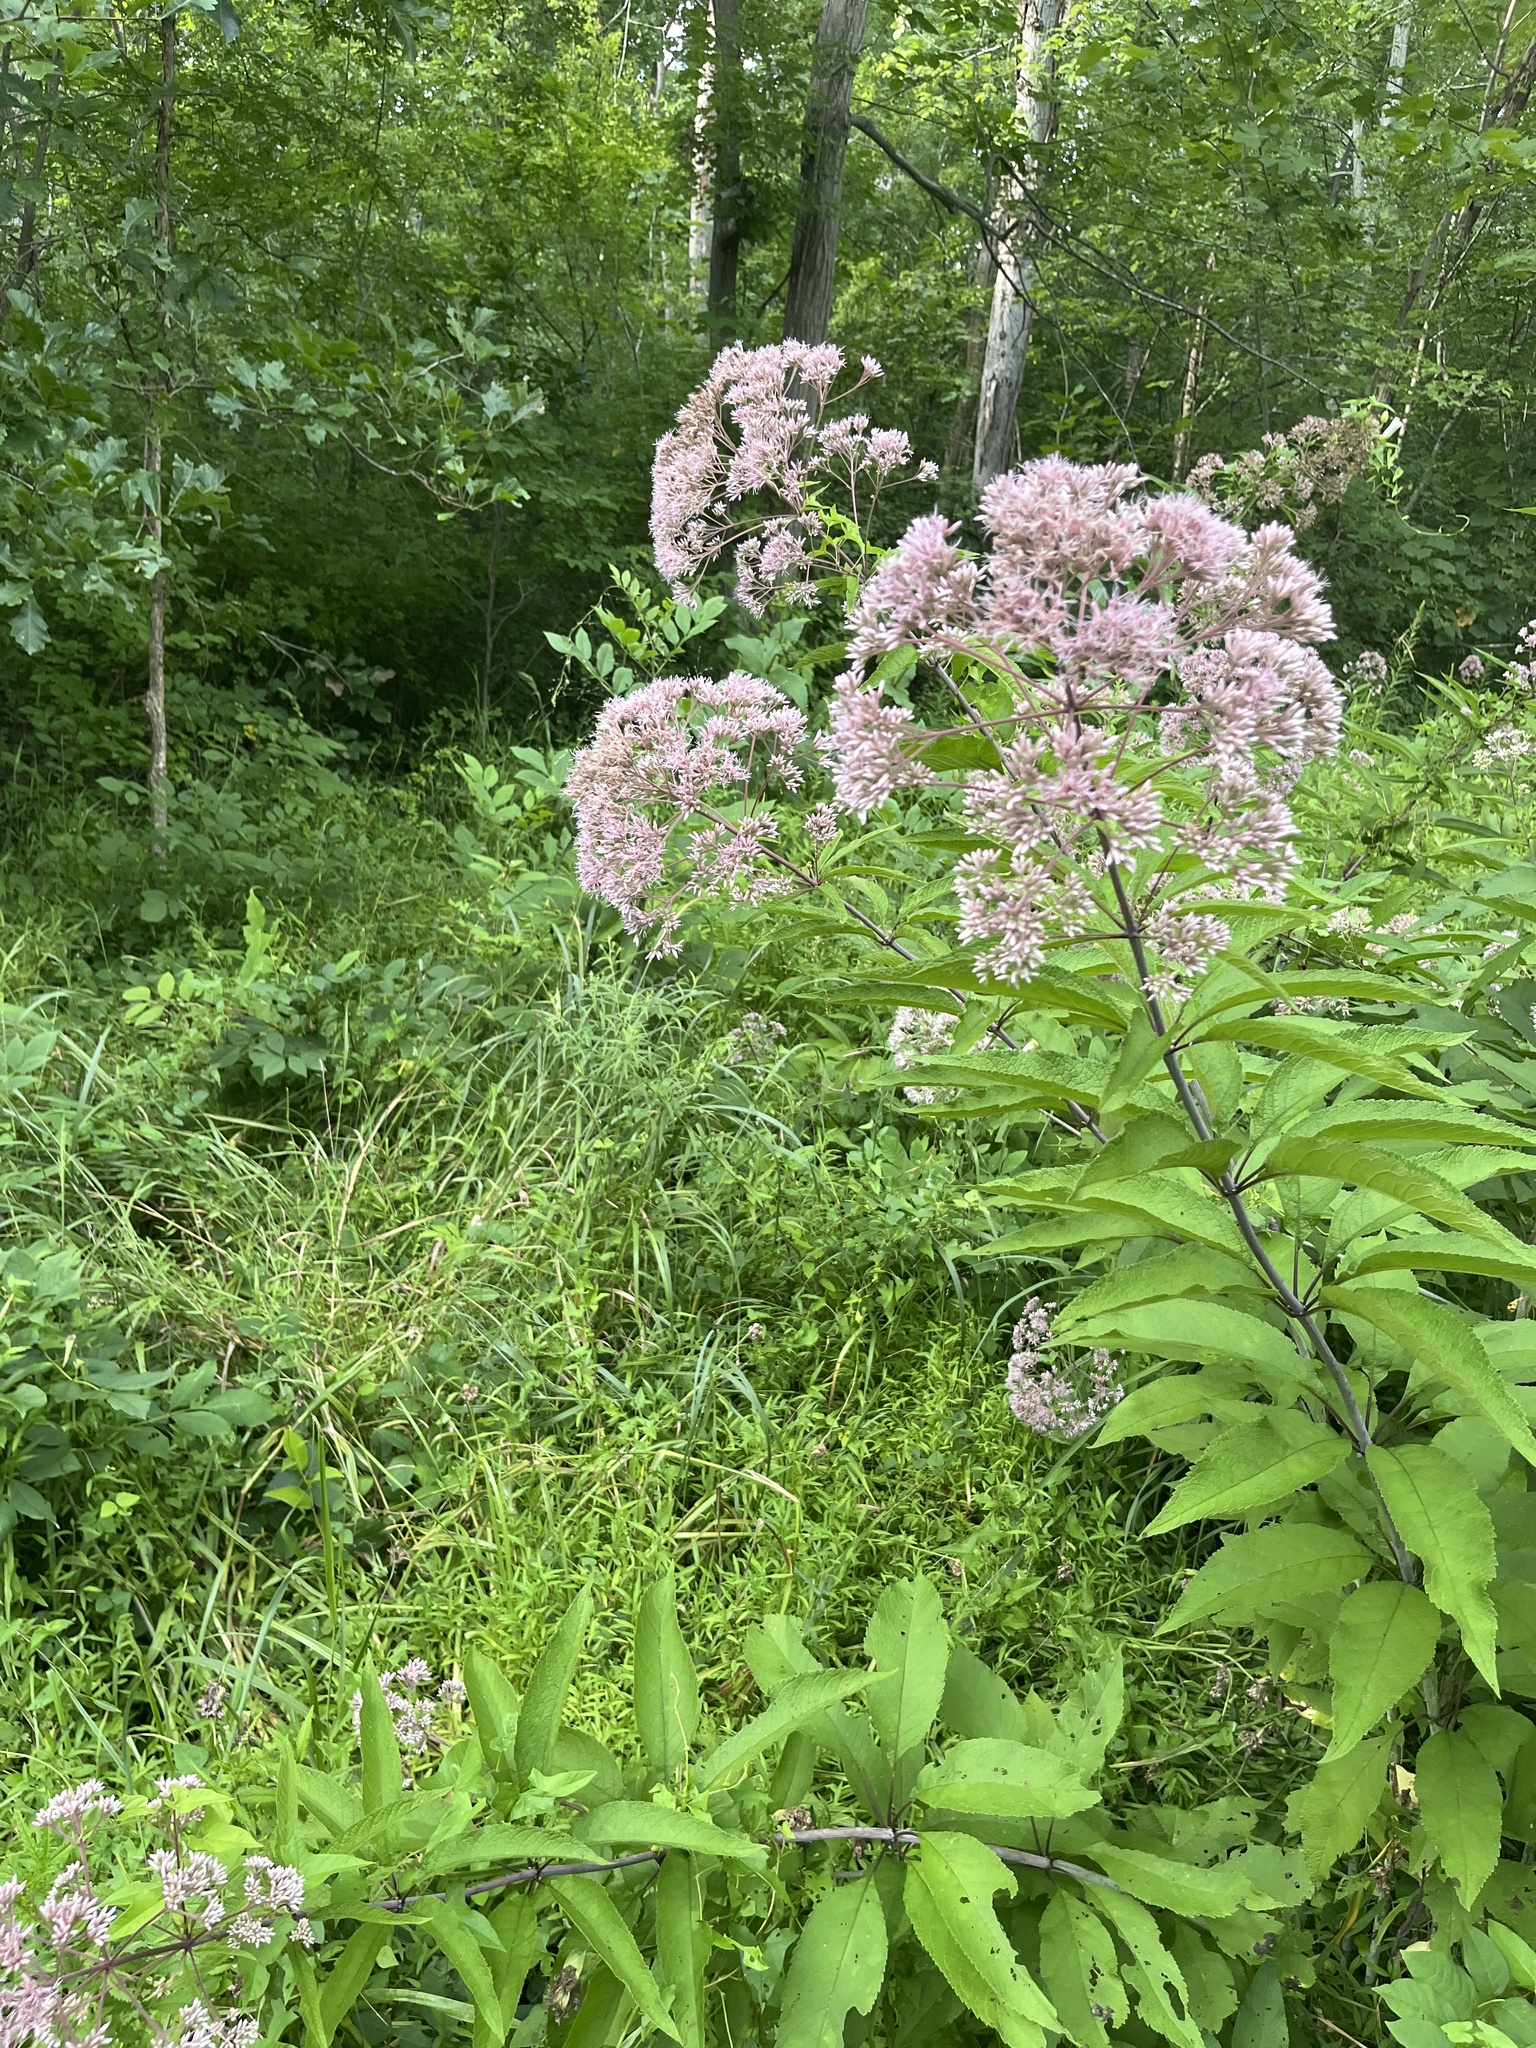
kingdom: Plantae
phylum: Tracheophyta
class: Magnoliopsida
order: Asterales
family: Asteraceae
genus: Eutrochium
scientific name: Eutrochium fistulosum
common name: Trumpetweed
